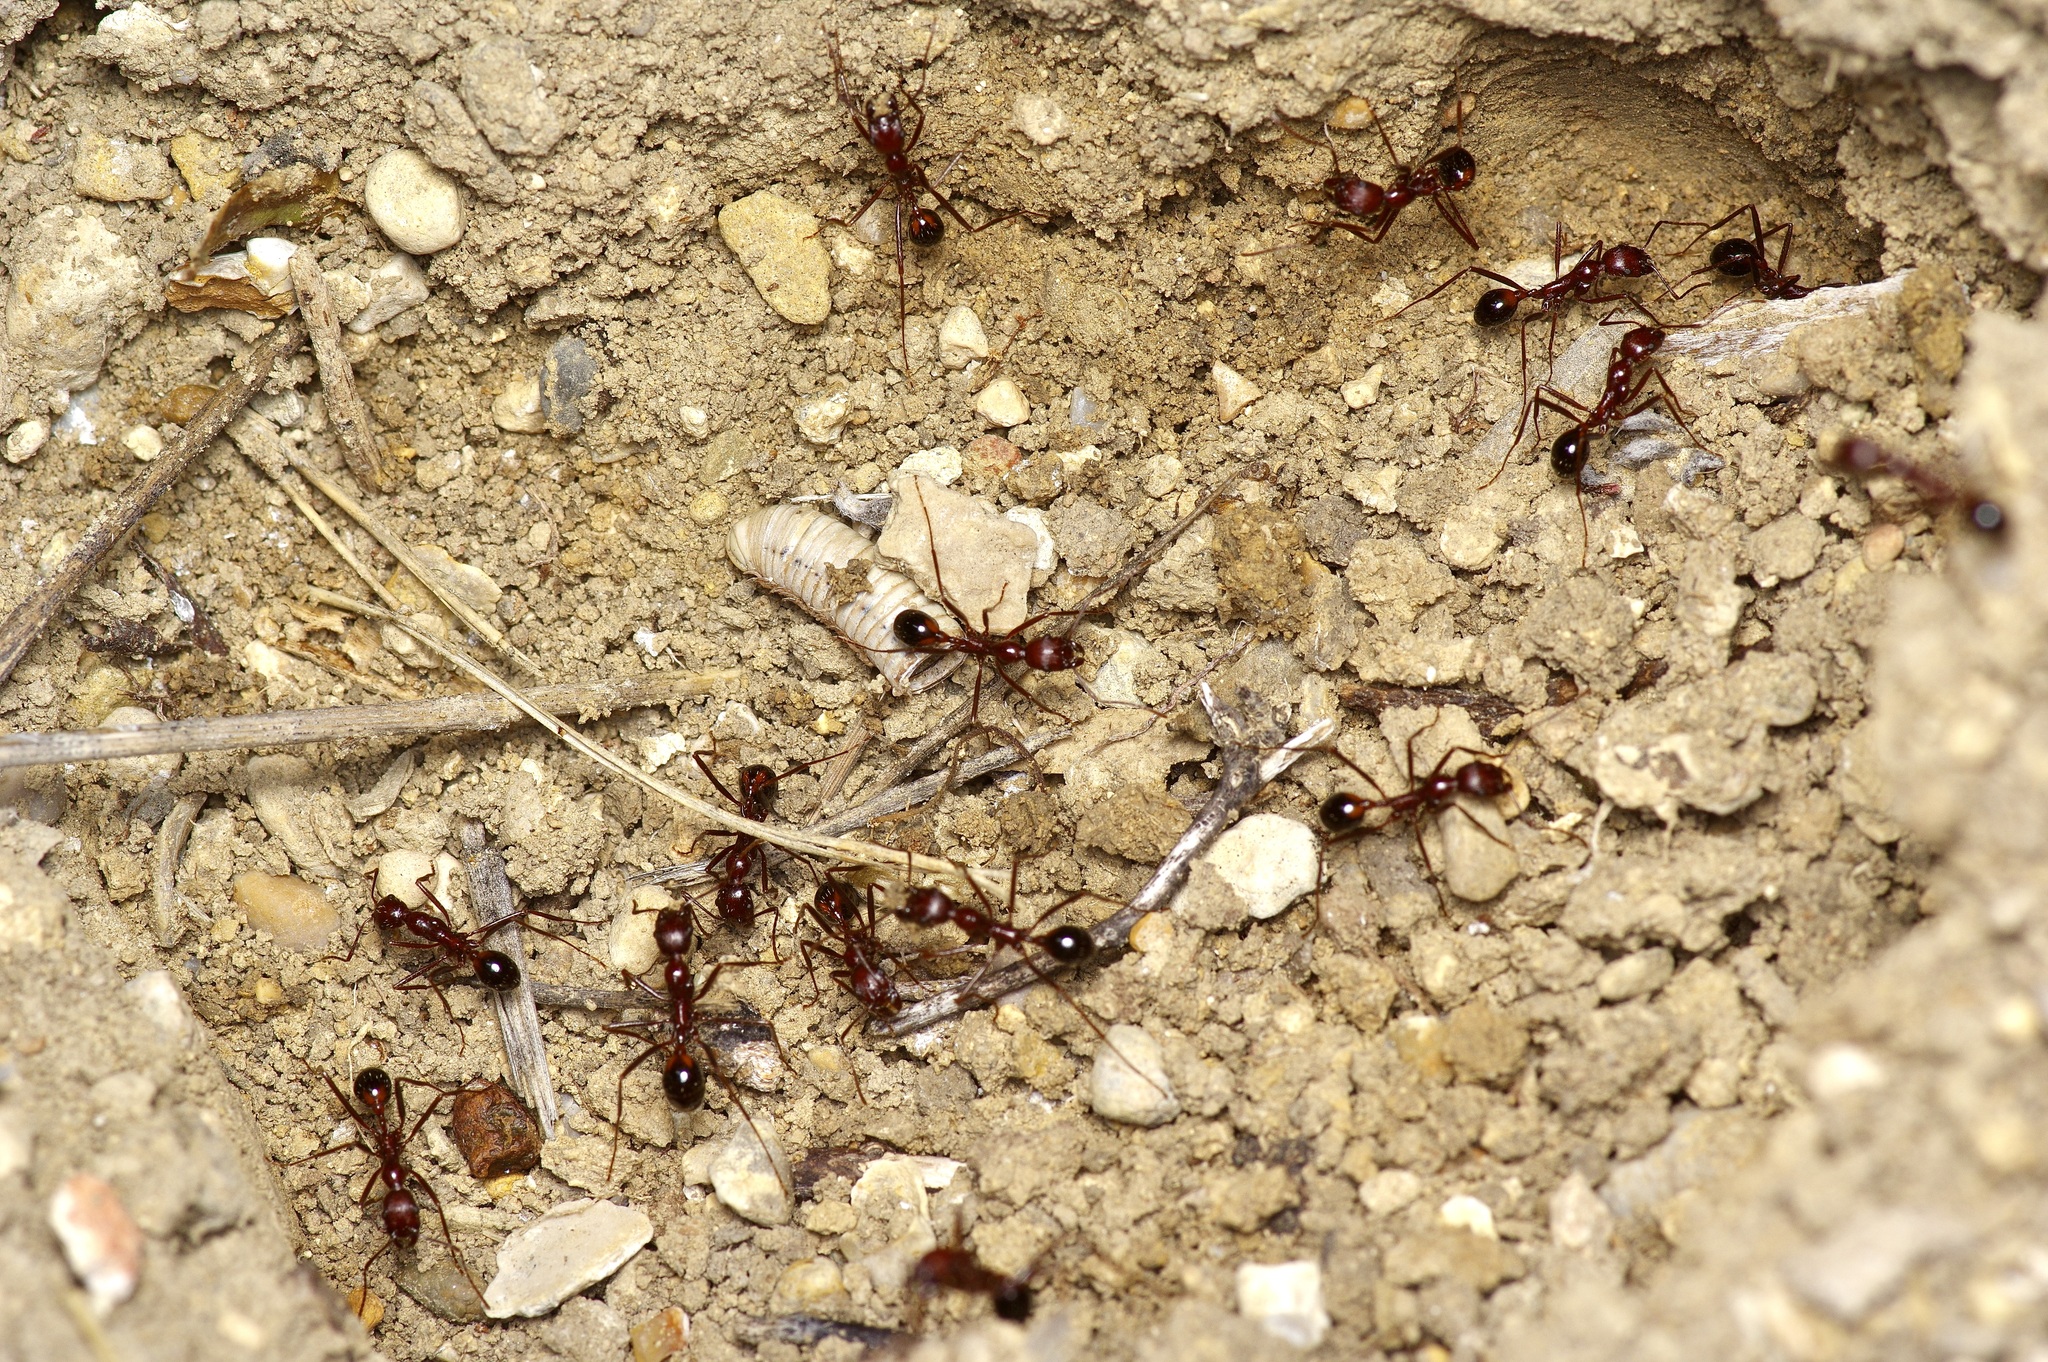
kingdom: Animalia
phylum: Arthropoda
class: Insecta
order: Hymenoptera
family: Formicidae
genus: Novomessor
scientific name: Novomessor cockerelli
